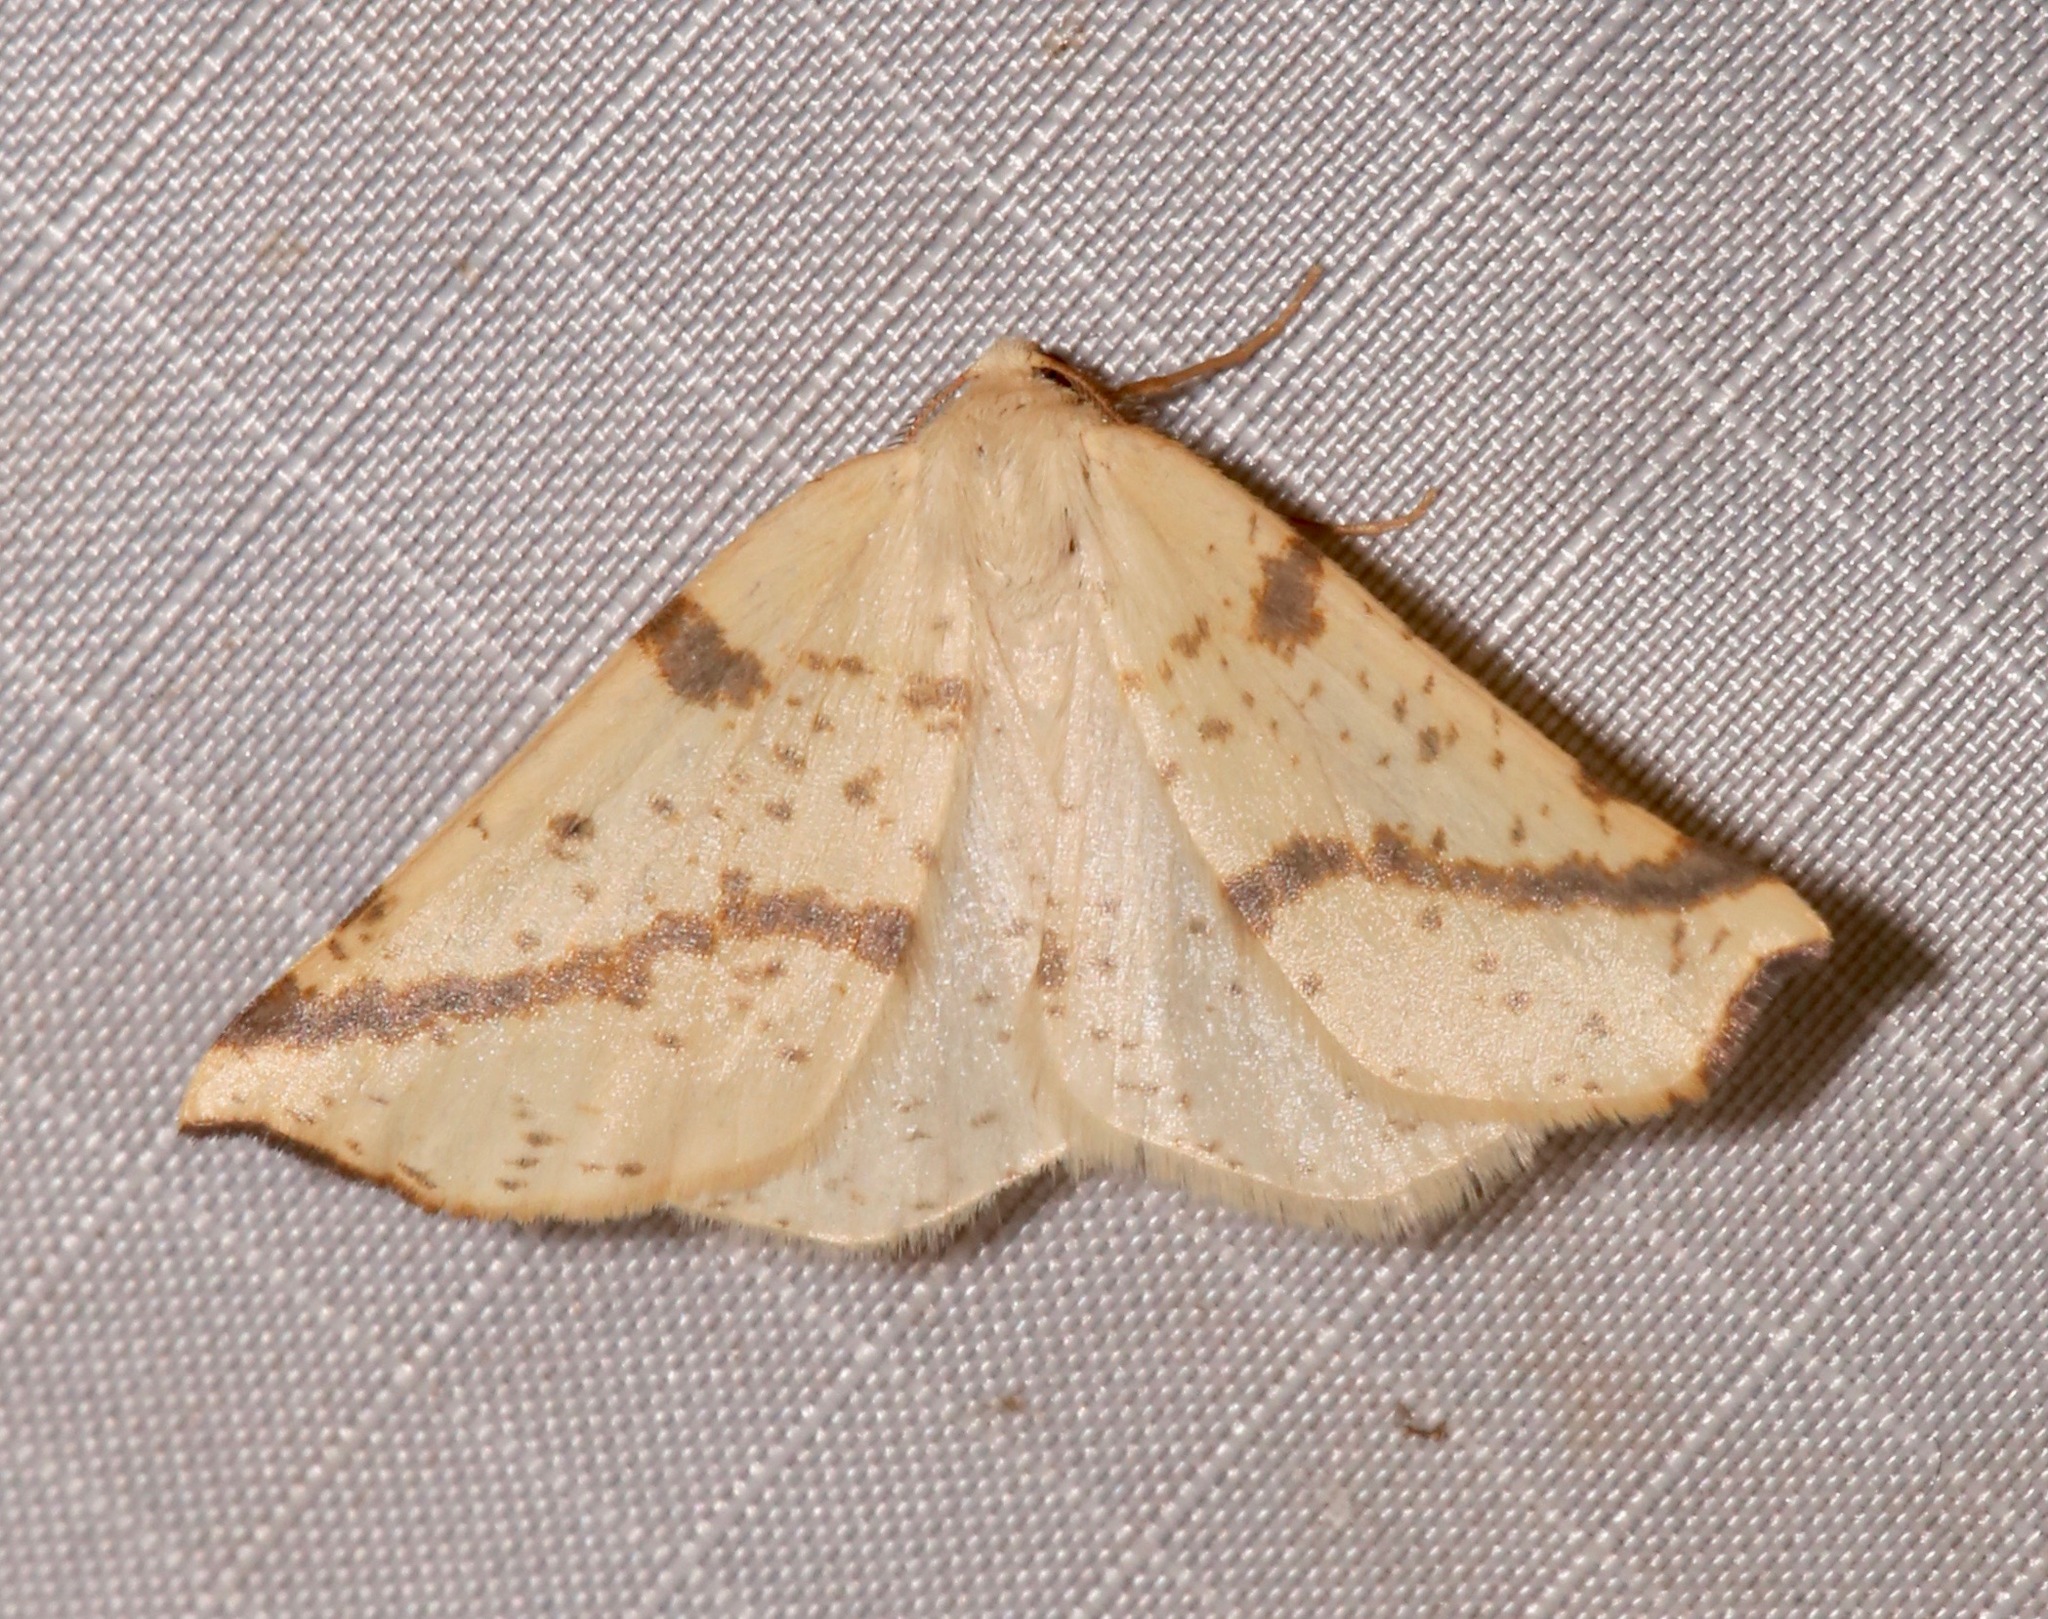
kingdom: Animalia
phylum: Arthropoda
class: Insecta
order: Lepidoptera
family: Geometridae
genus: Neoterpes
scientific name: Neoterpes ephelidaria
